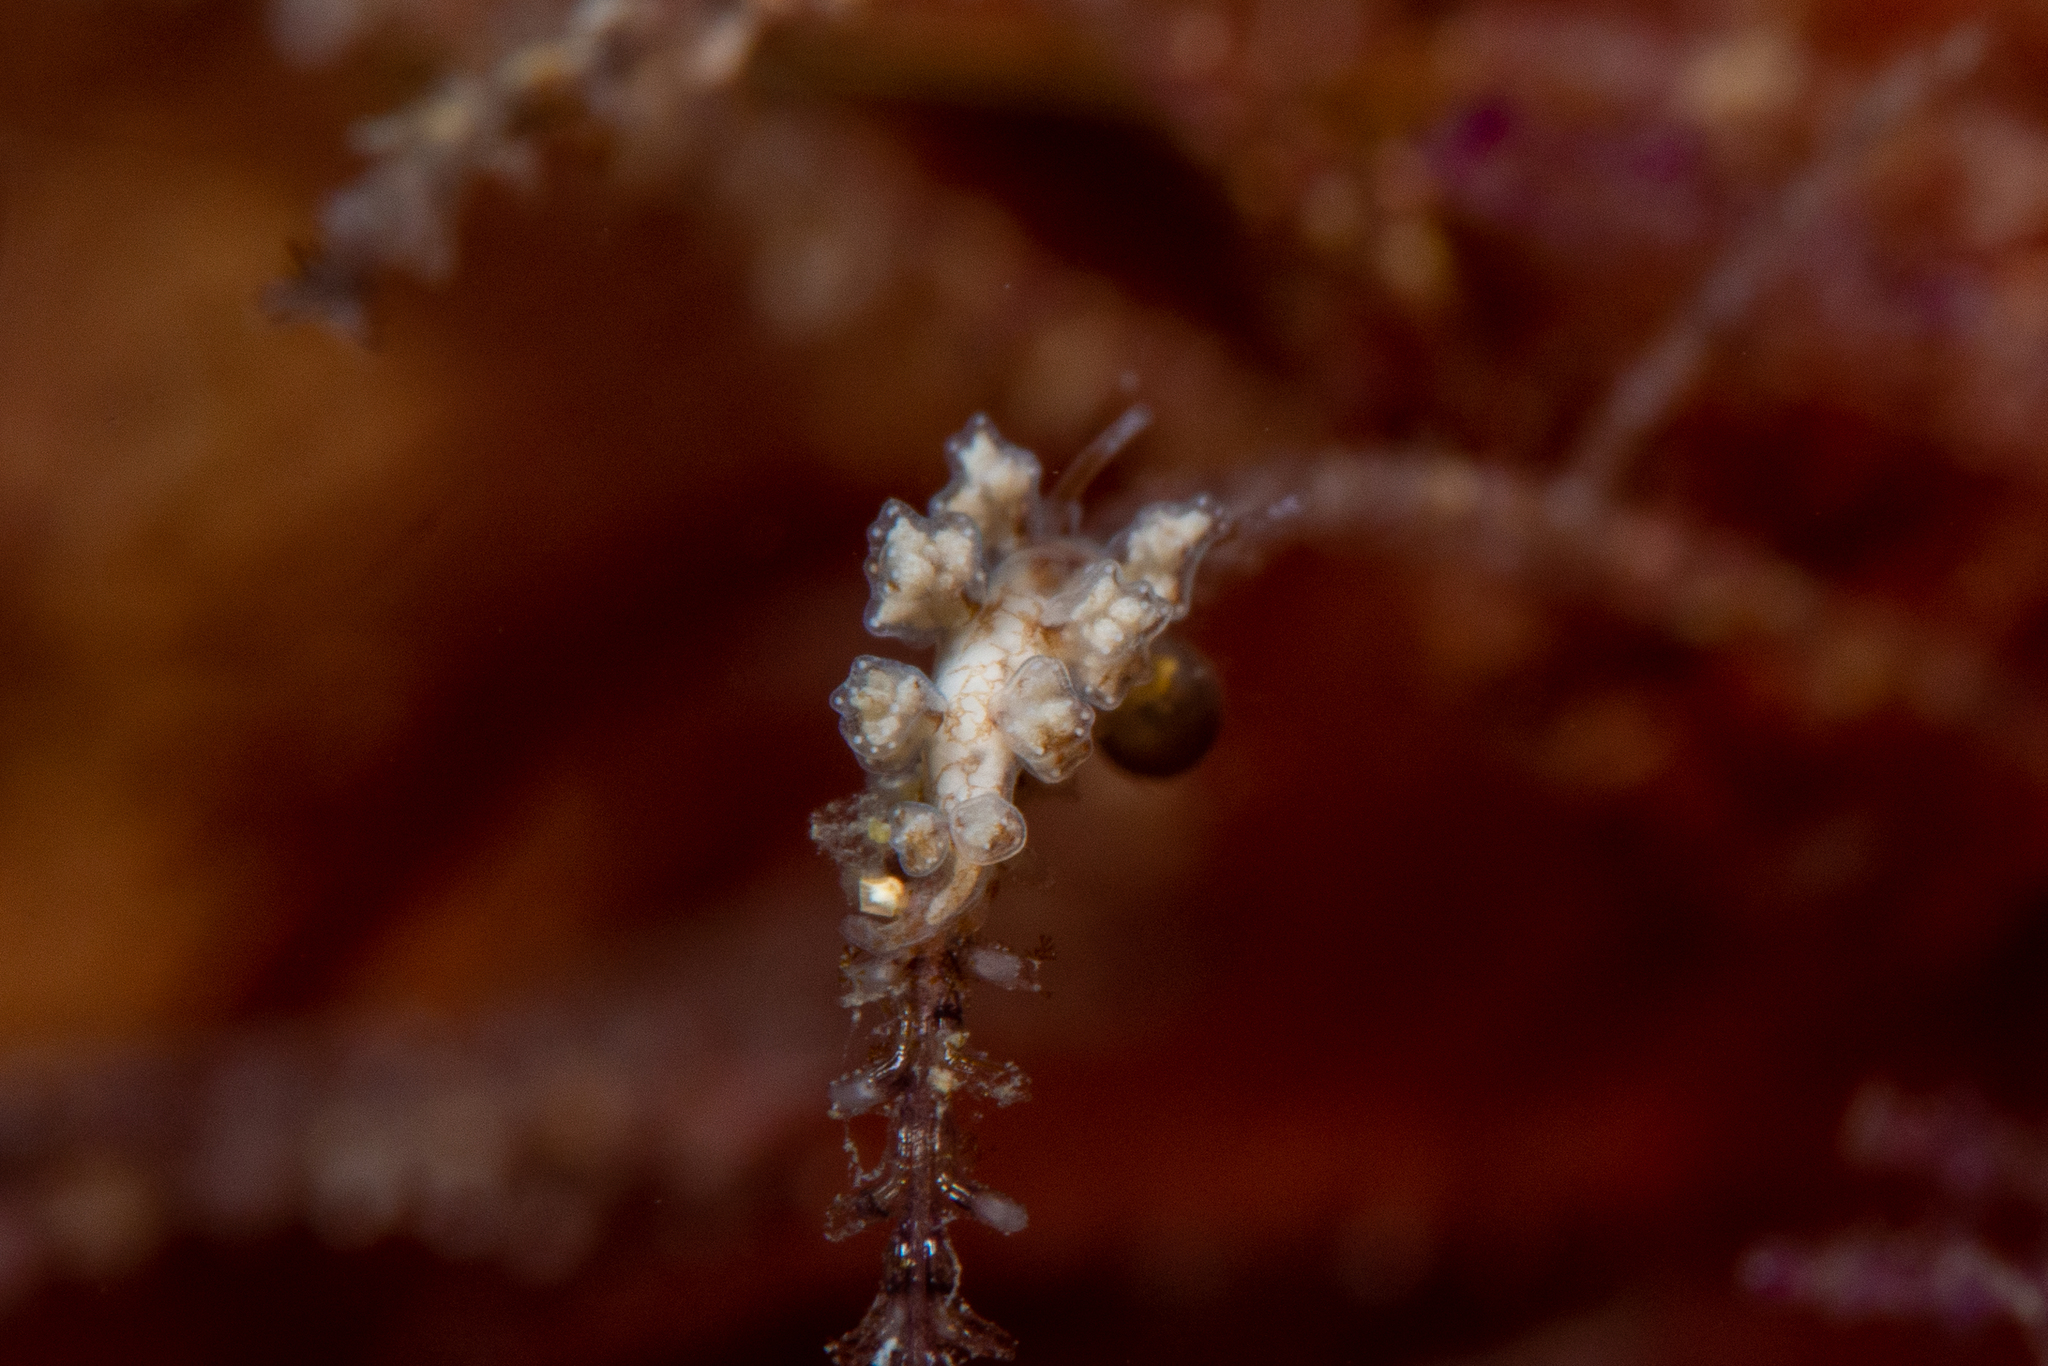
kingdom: Animalia
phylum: Mollusca
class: Gastropoda
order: Nudibranchia
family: Dotidae
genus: Doto
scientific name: Doto pita
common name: Pita doto
